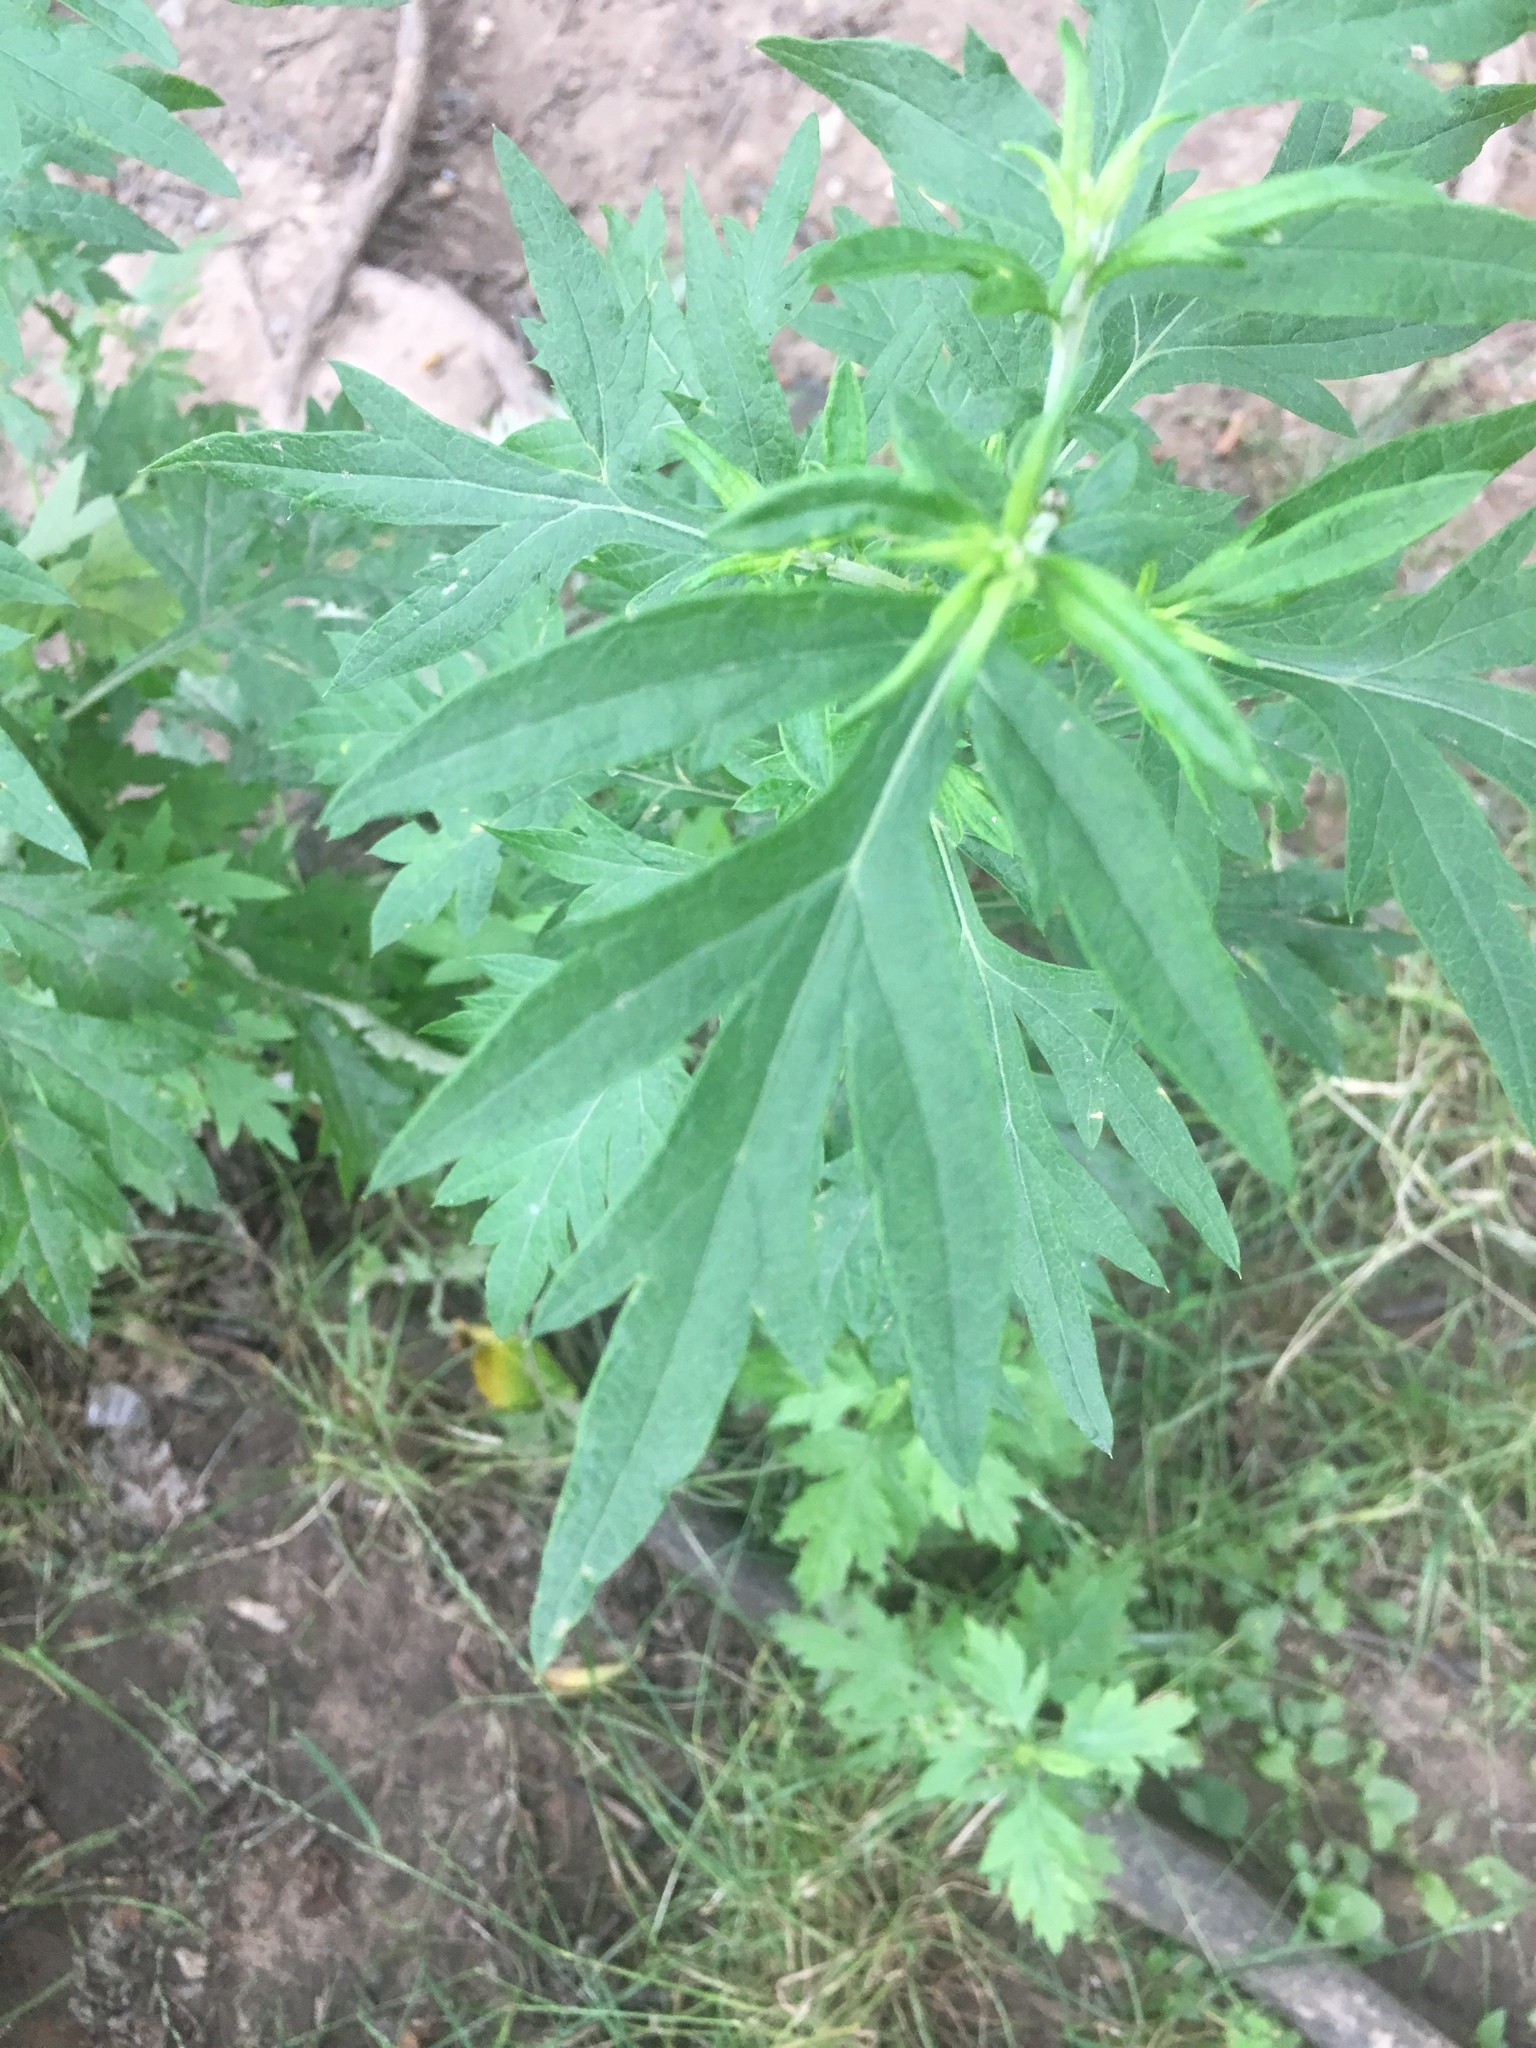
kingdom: Plantae
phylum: Tracheophyta
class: Magnoliopsida
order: Asterales
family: Asteraceae
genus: Artemisia
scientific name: Artemisia vulgaris
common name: Mugwort
